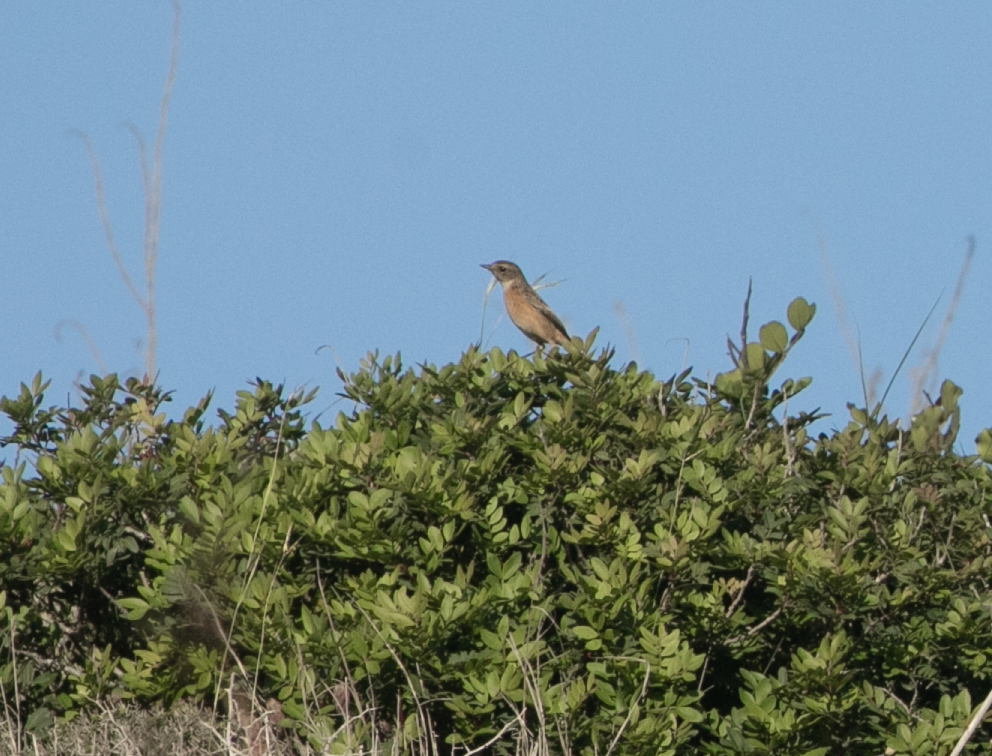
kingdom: Animalia
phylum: Chordata
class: Aves
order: Passeriformes
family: Muscicapidae
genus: Saxicola
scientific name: Saxicola rubicola
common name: European stonechat
